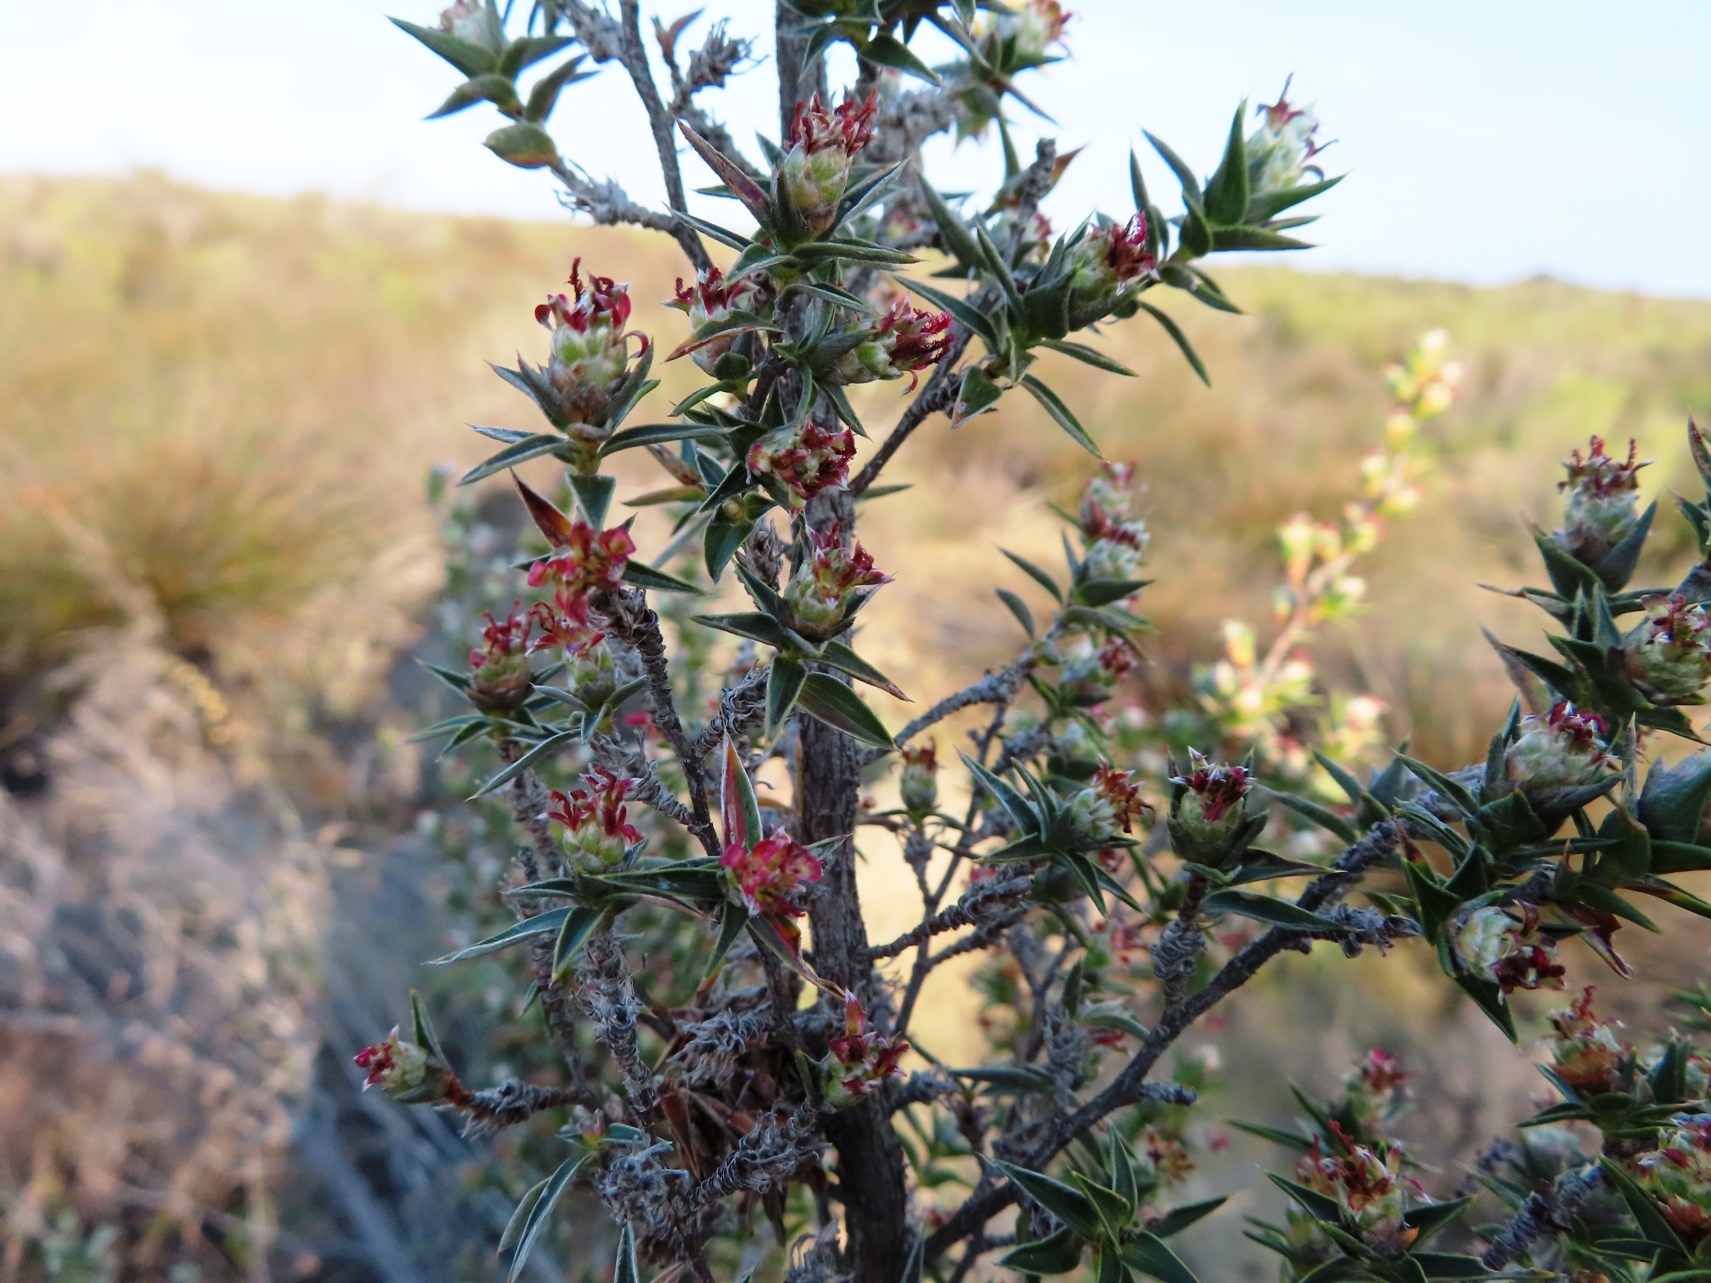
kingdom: Plantae
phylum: Tracheophyta
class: Magnoliopsida
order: Rosales
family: Rosaceae
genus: Cliffortia
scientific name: Cliffortia ruscifolia
